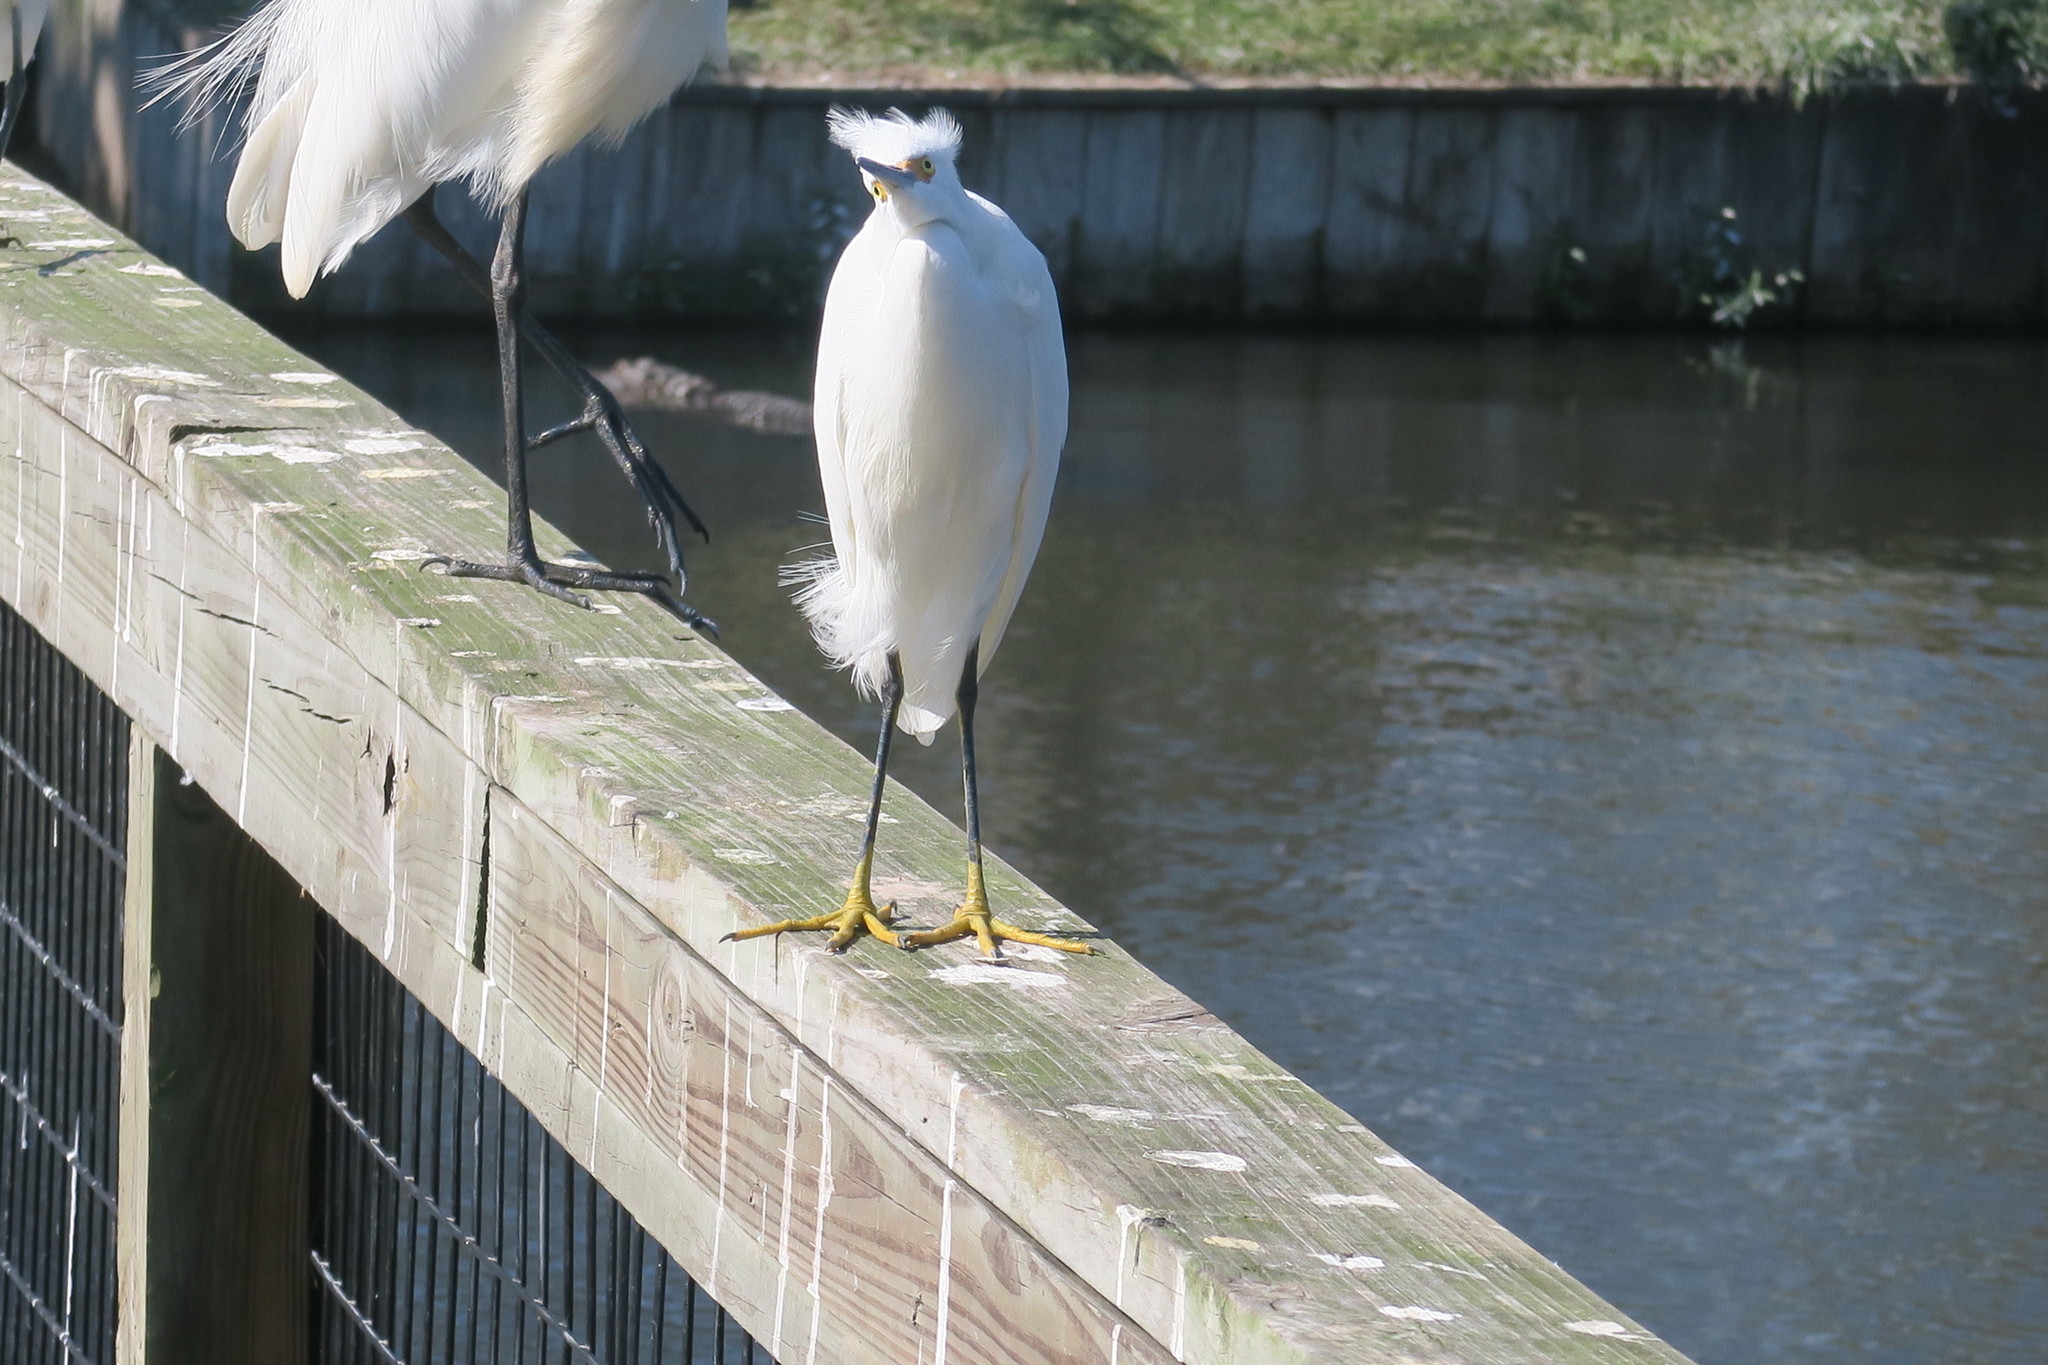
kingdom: Animalia
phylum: Chordata
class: Aves
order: Pelecaniformes
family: Ardeidae
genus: Egretta
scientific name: Egretta thula
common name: Snowy egret
